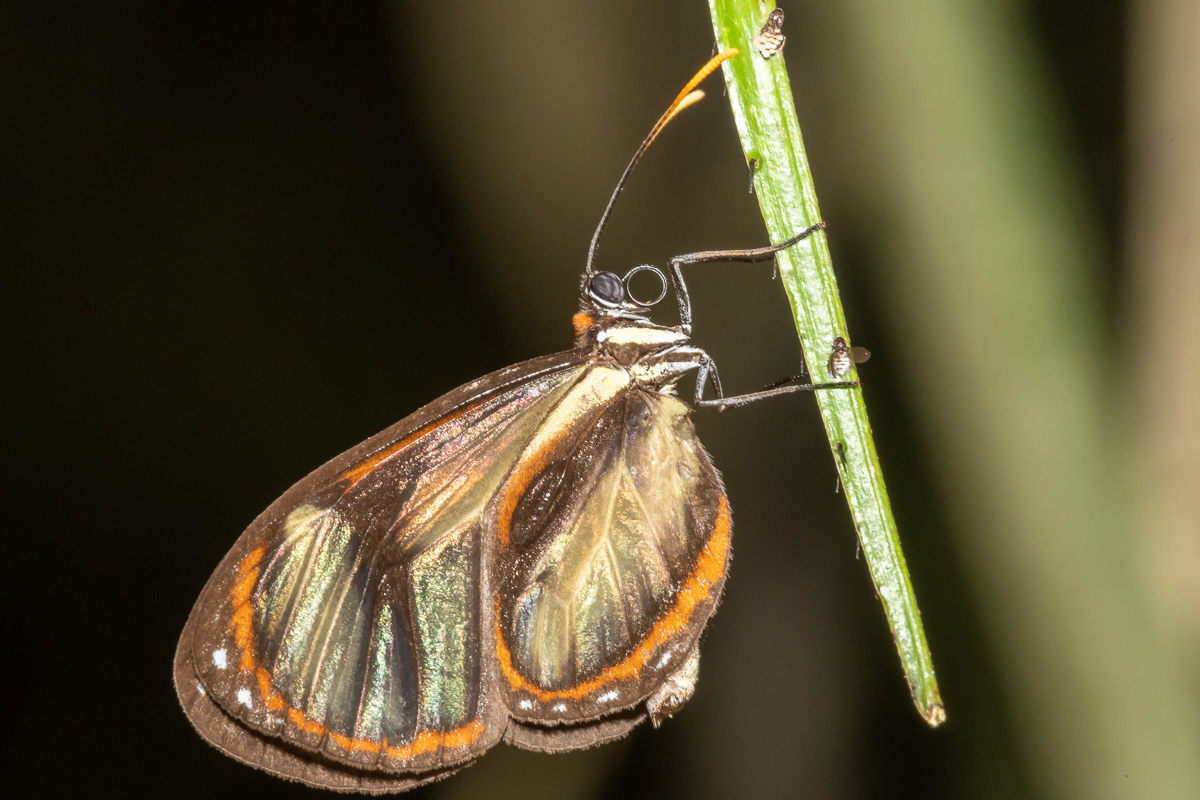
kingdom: Animalia
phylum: Arthropoda
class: Insecta
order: Lepidoptera
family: Nymphalidae
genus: Ithomia
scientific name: Ithomia salapia
